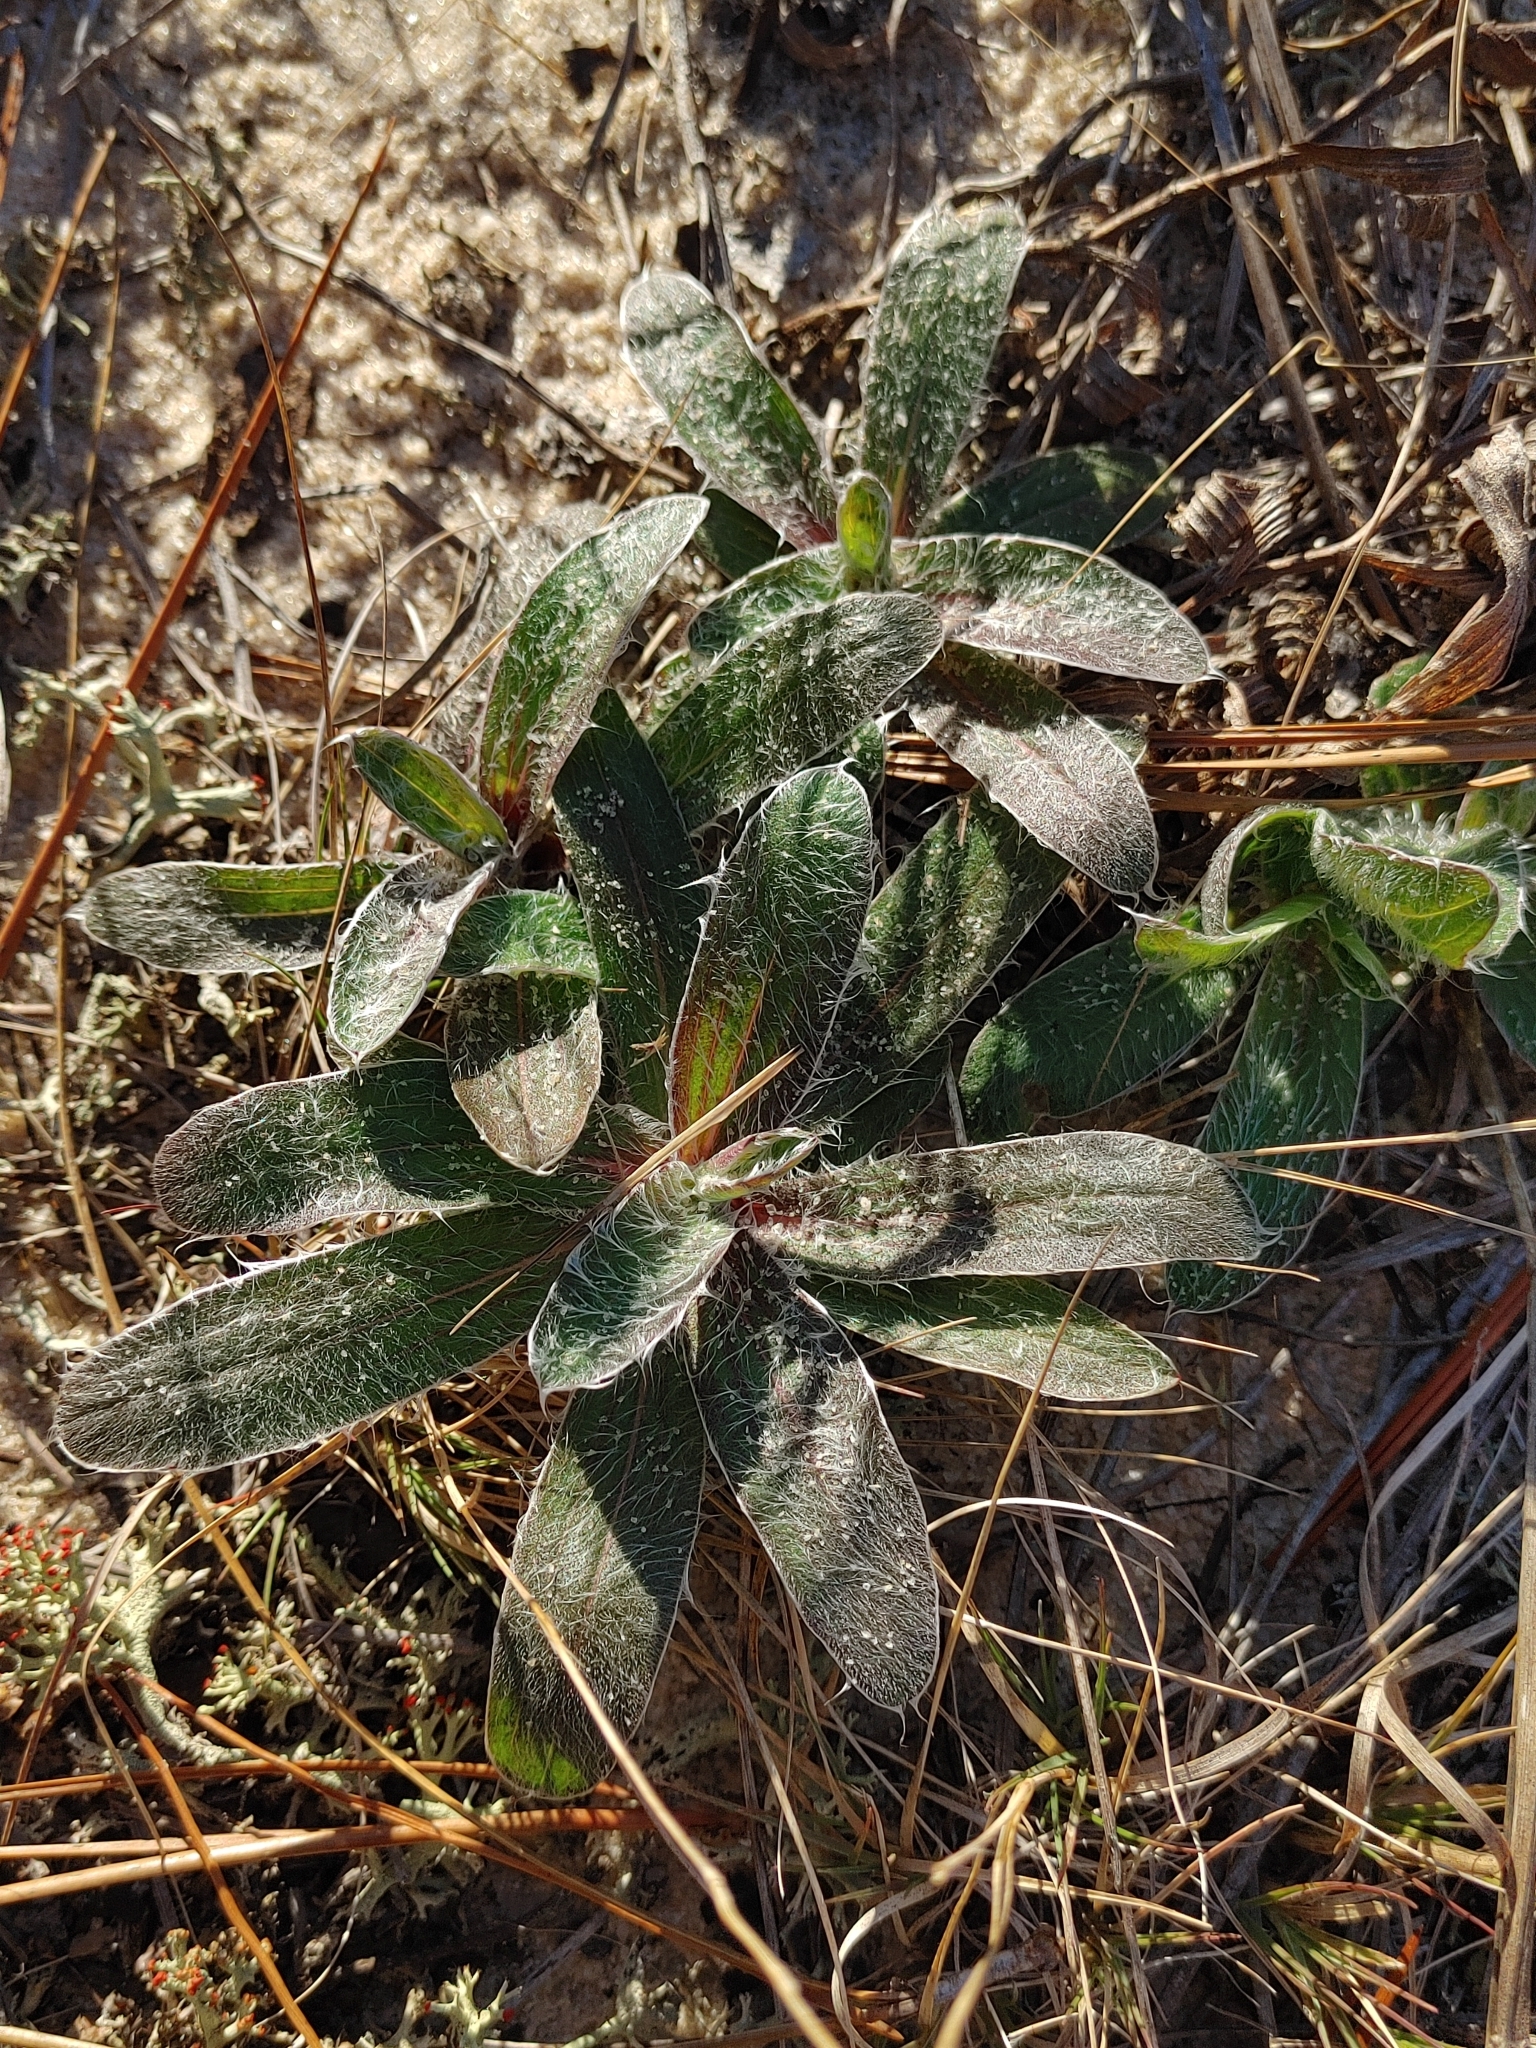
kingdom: Plantae
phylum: Tracheophyta
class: Magnoliopsida
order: Asterales
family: Asteraceae
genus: Pityopsis
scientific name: Pityopsis flexuosa
